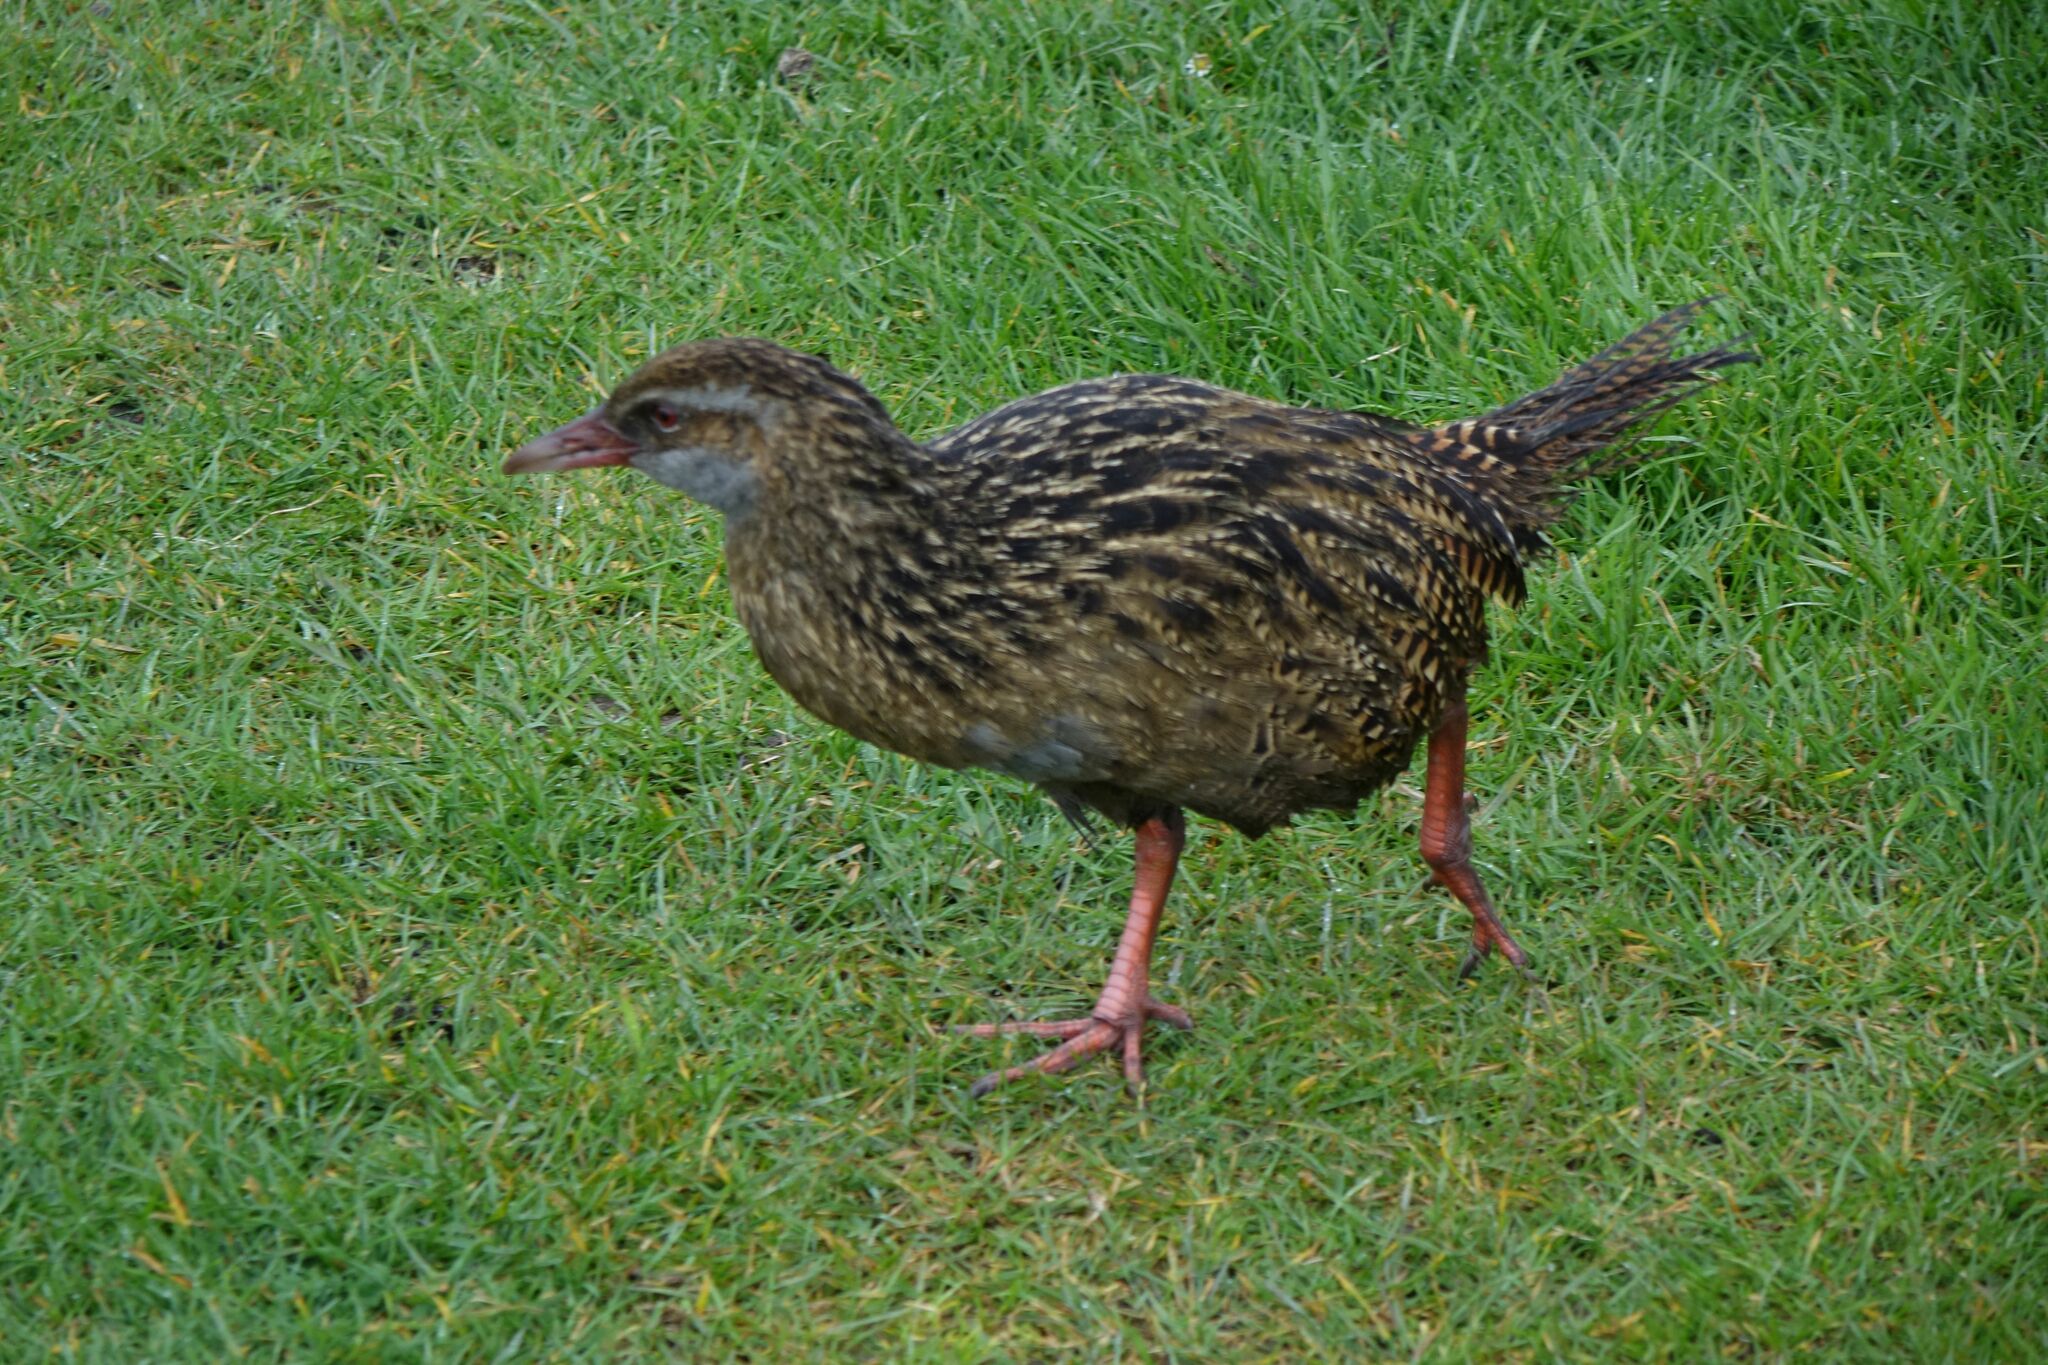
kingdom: Animalia
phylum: Chordata
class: Aves
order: Gruiformes
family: Rallidae
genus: Gallirallus
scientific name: Gallirallus australis
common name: Weka
